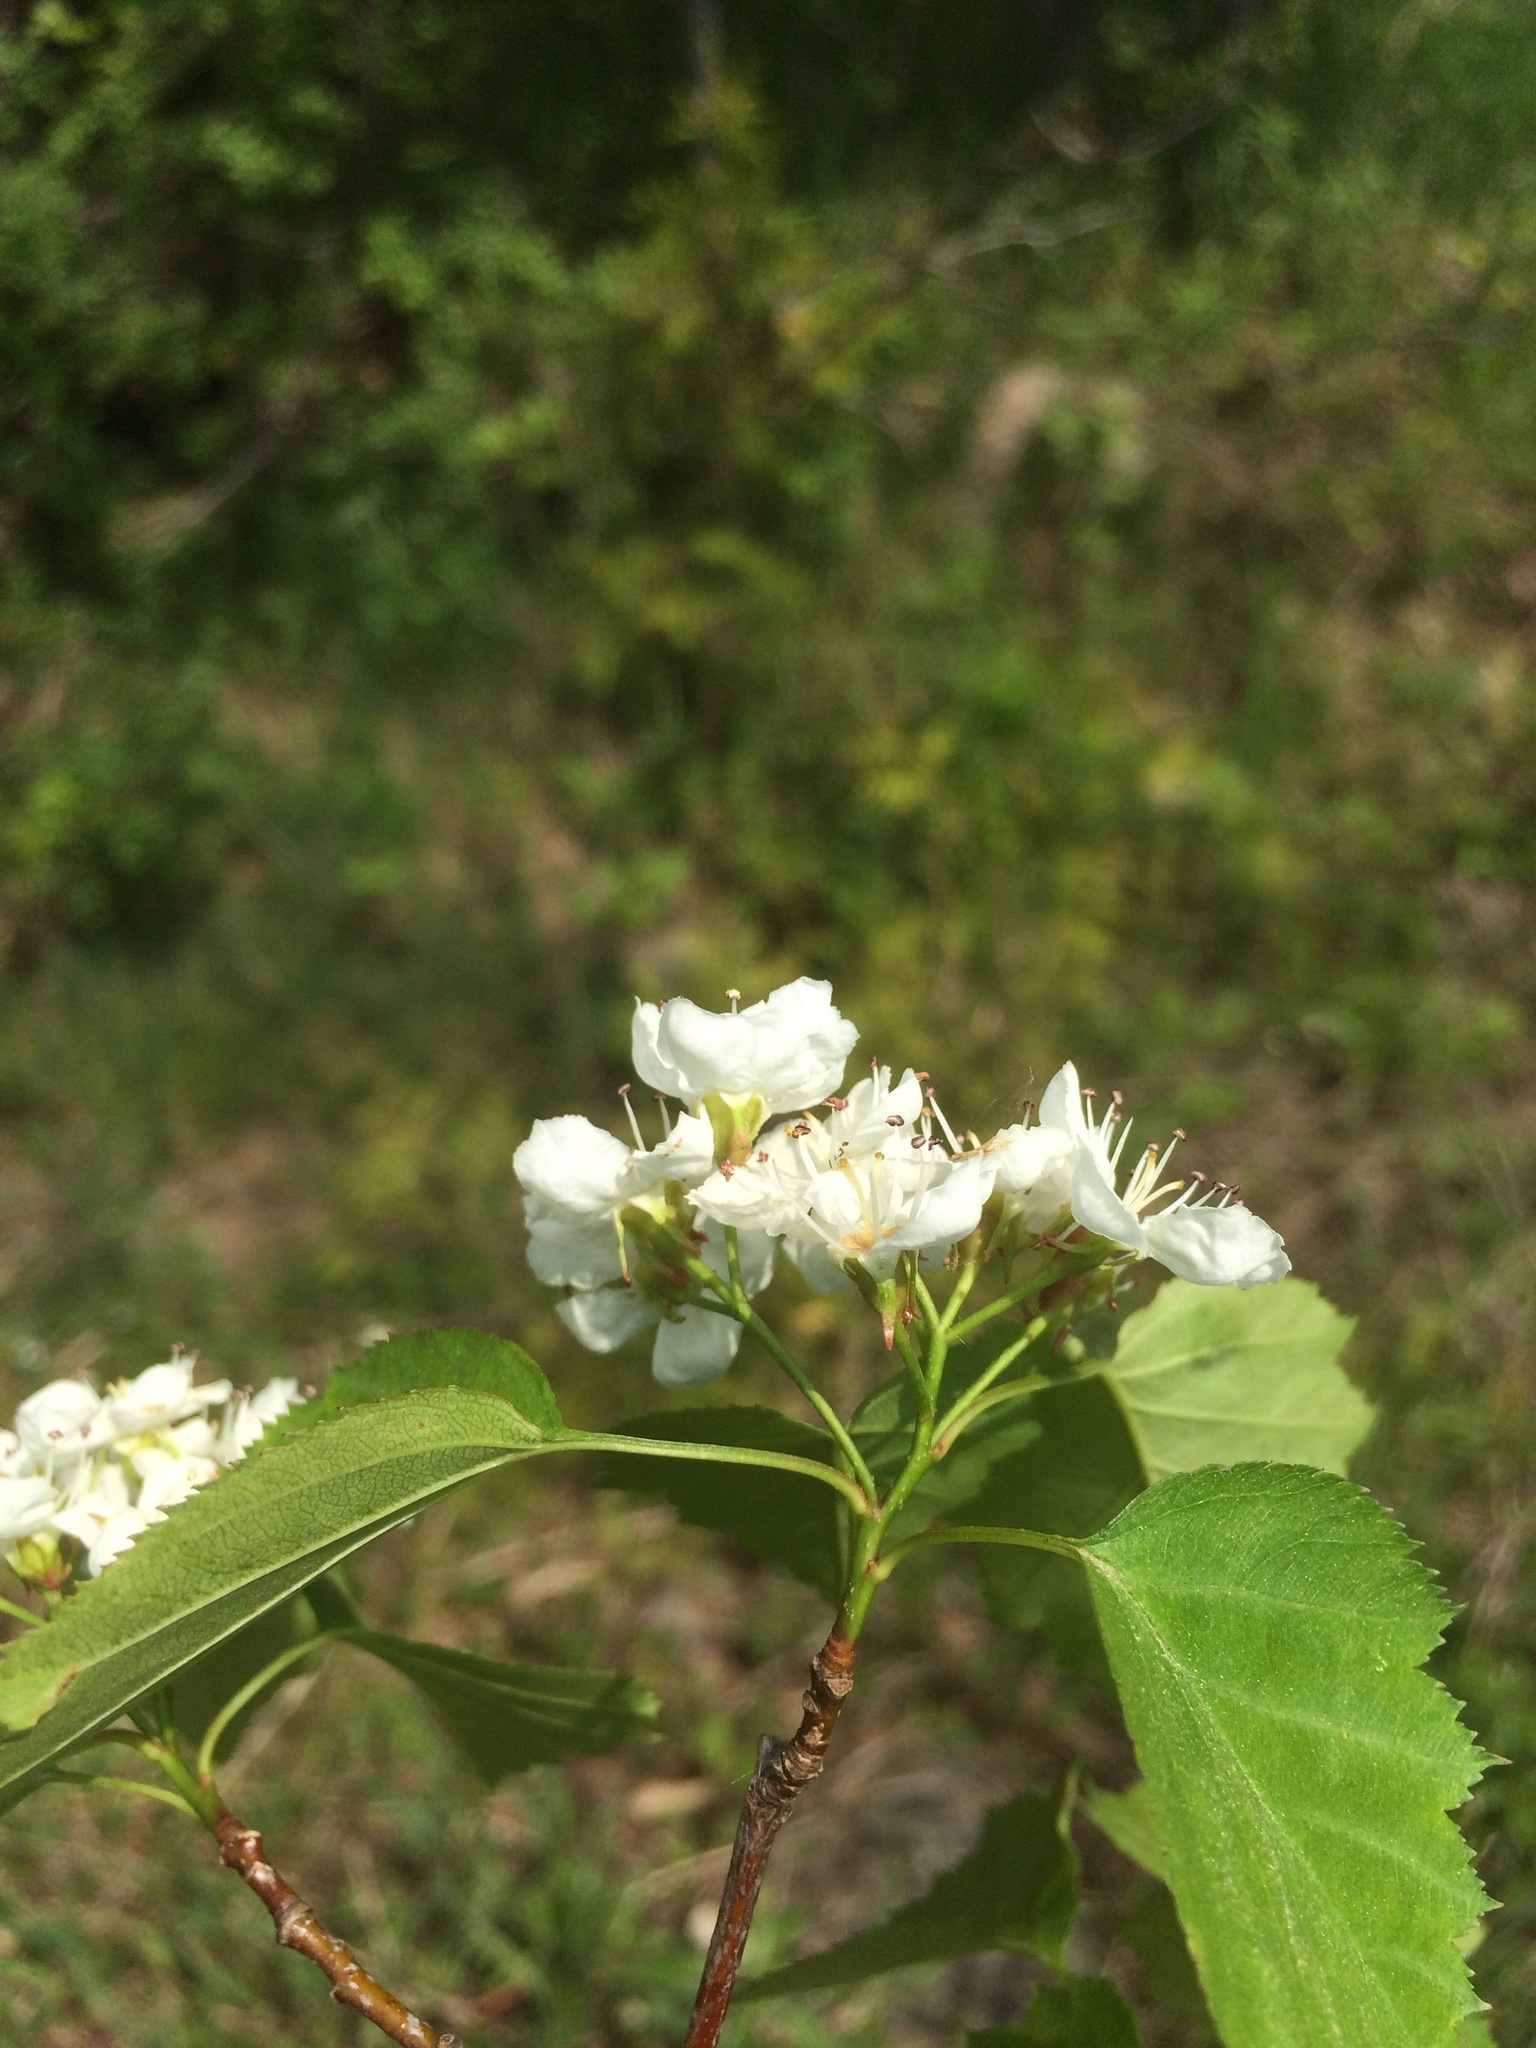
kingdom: Plantae
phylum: Tracheophyta
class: Magnoliopsida
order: Rosales
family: Rosaceae
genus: Crataegus
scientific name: Crataegus macrosperma
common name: Variable hawthorn
